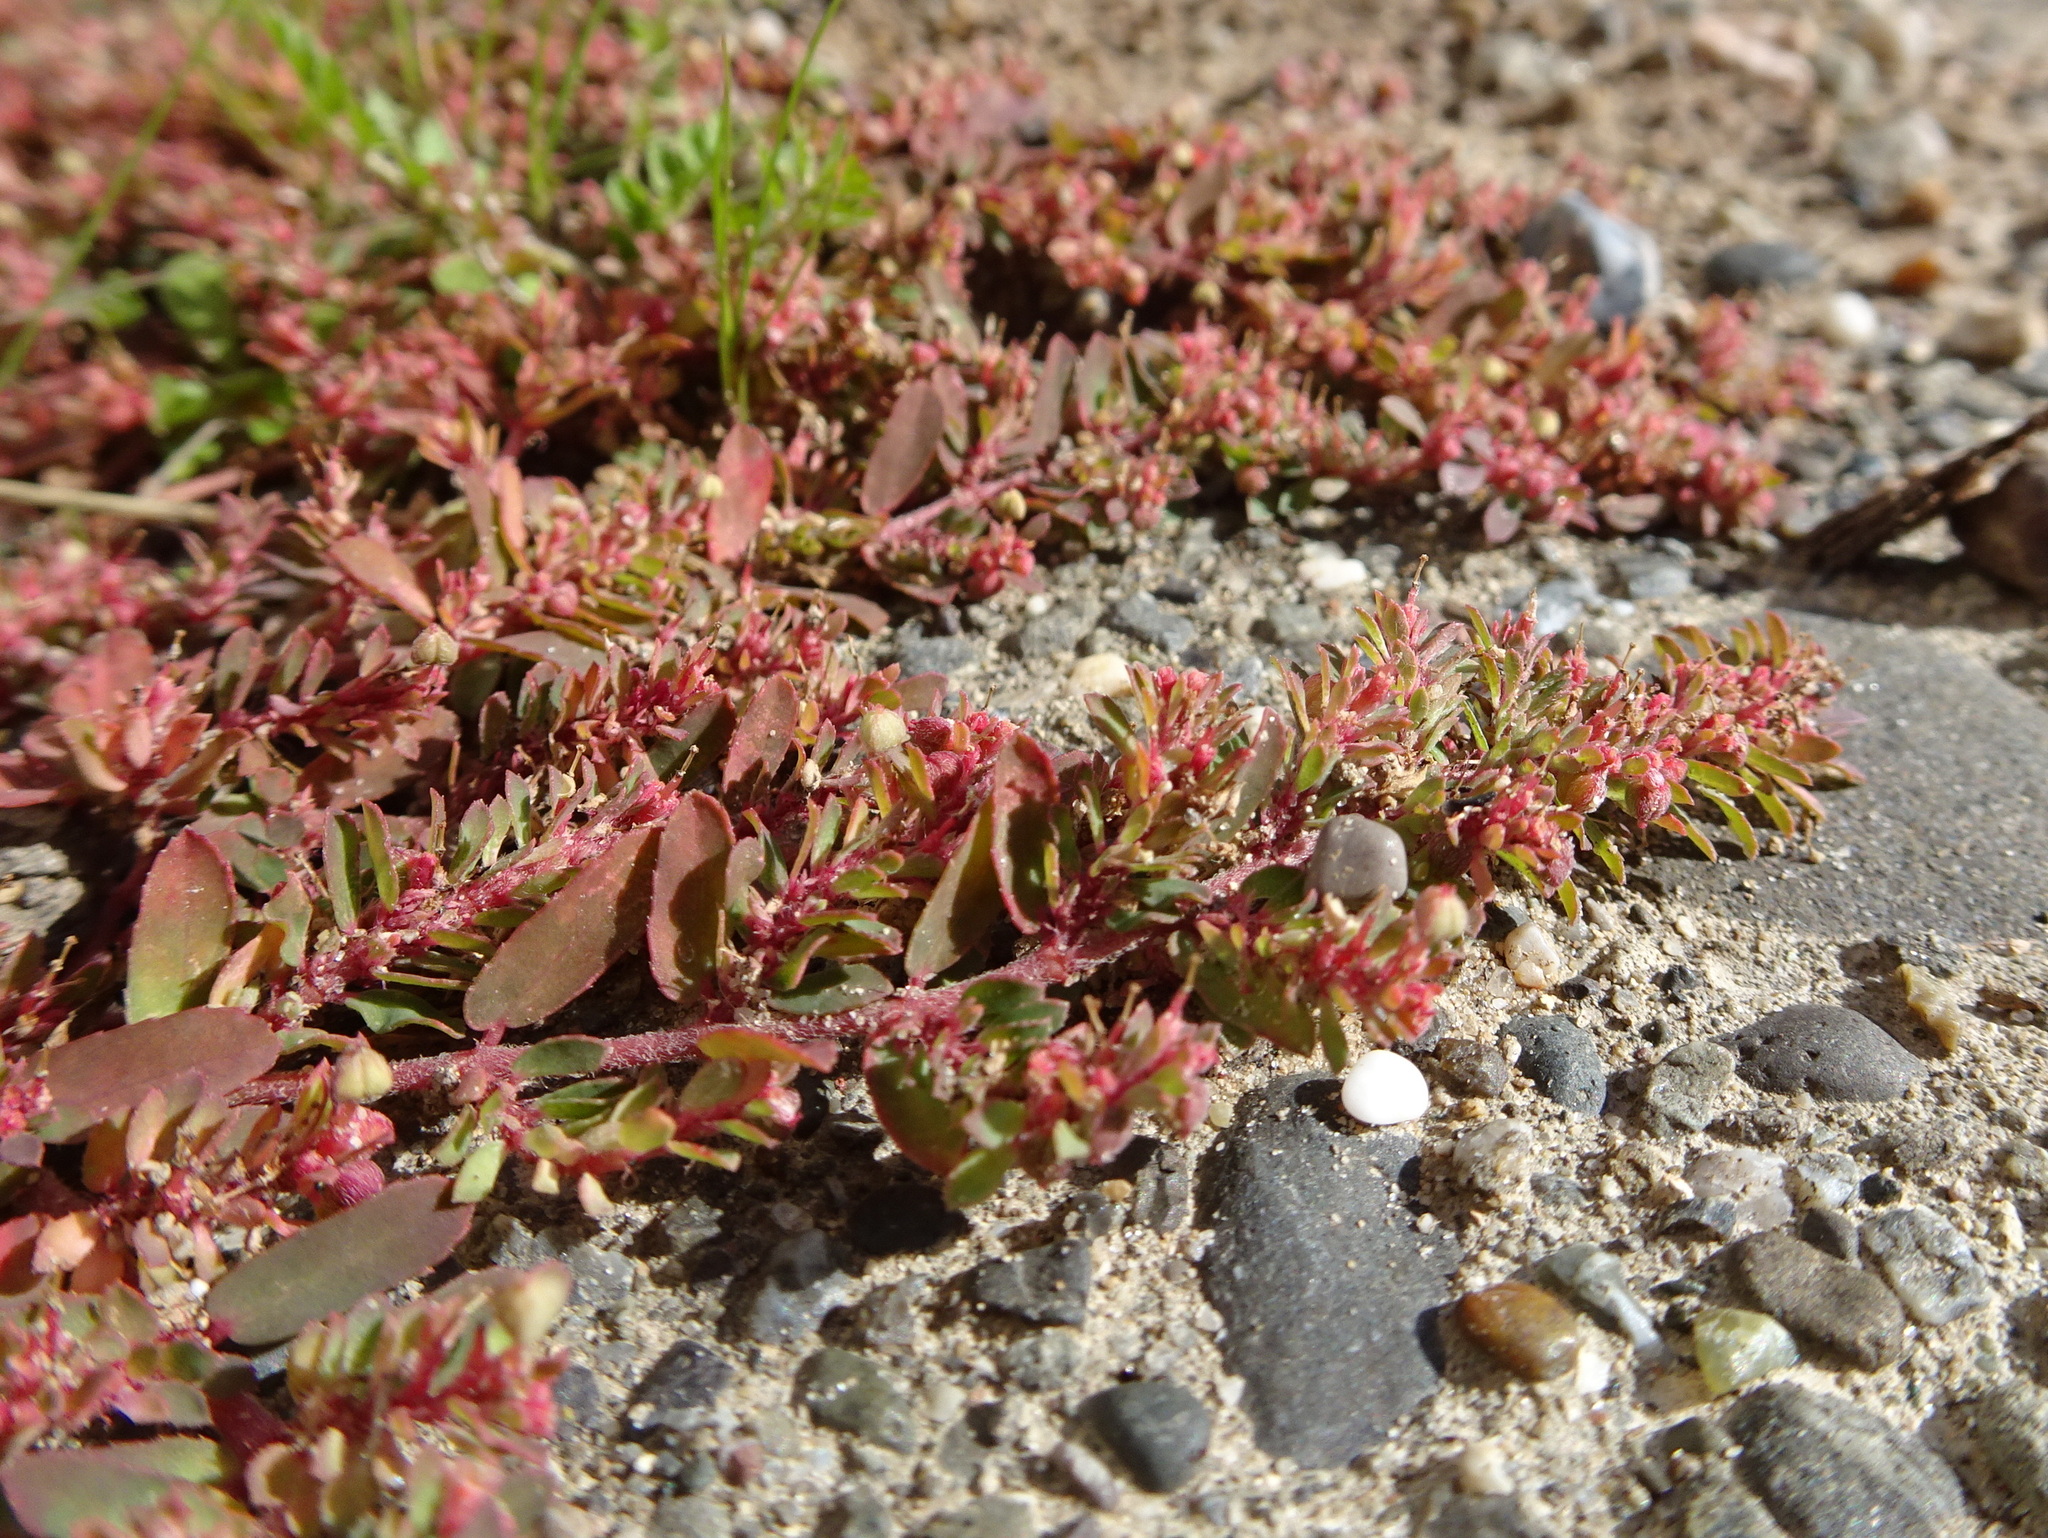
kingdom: Plantae
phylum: Tracheophyta
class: Magnoliopsida
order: Malpighiales
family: Euphorbiaceae
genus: Euphorbia
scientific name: Euphorbia maculata
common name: Spotted spurge
